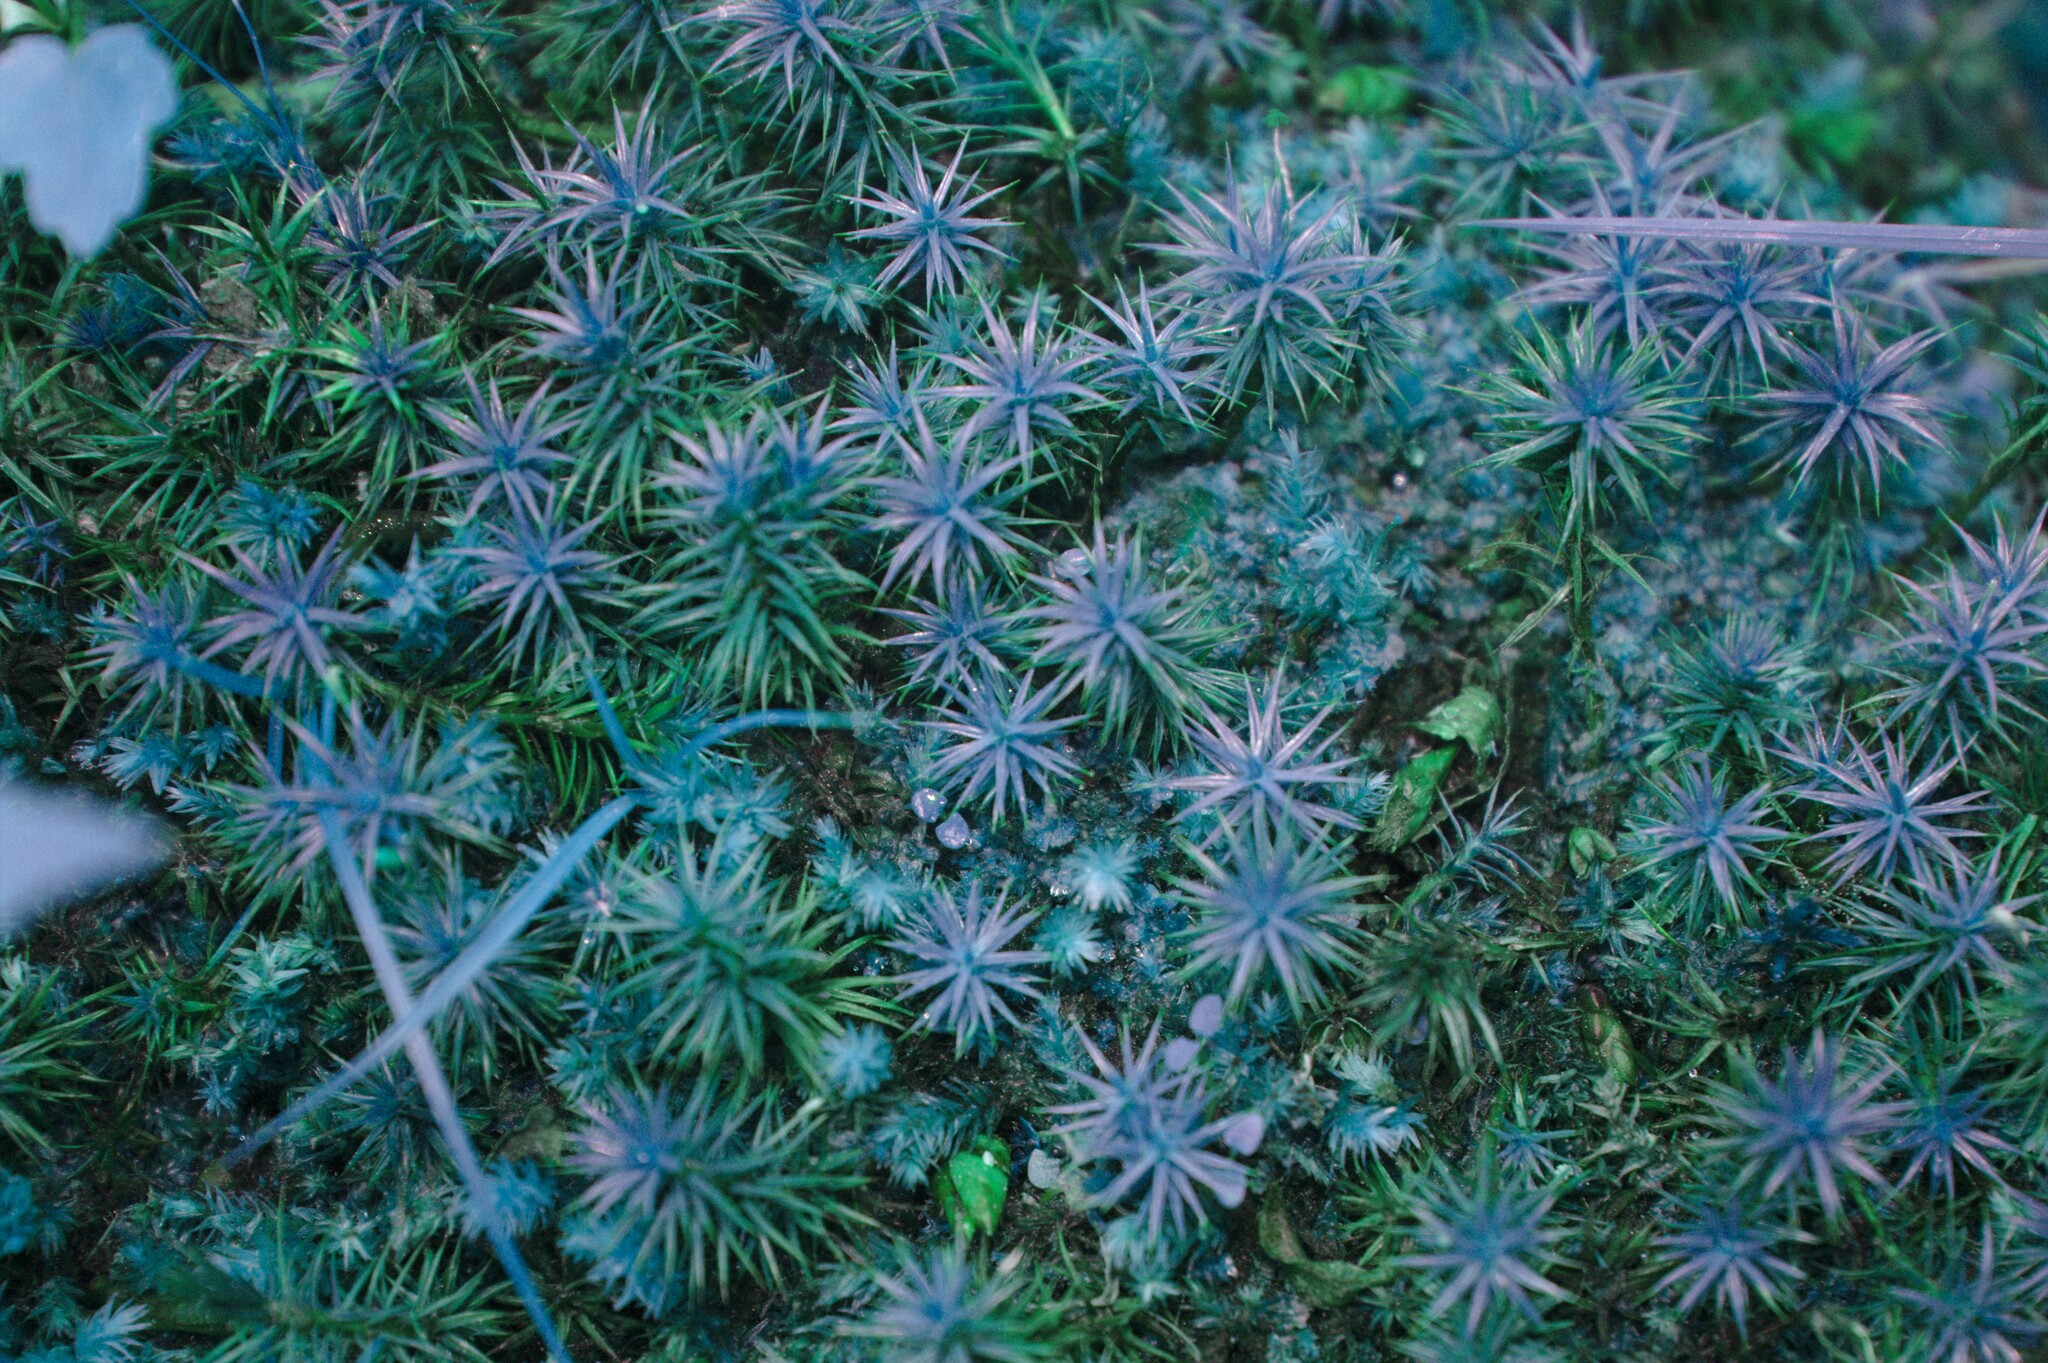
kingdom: Plantae
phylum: Bryophyta
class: Polytrichopsida
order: Polytrichales
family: Polytrichaceae
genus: Polytrichum
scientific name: Polytrichum juniperinum
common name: Juniper haircap moss
